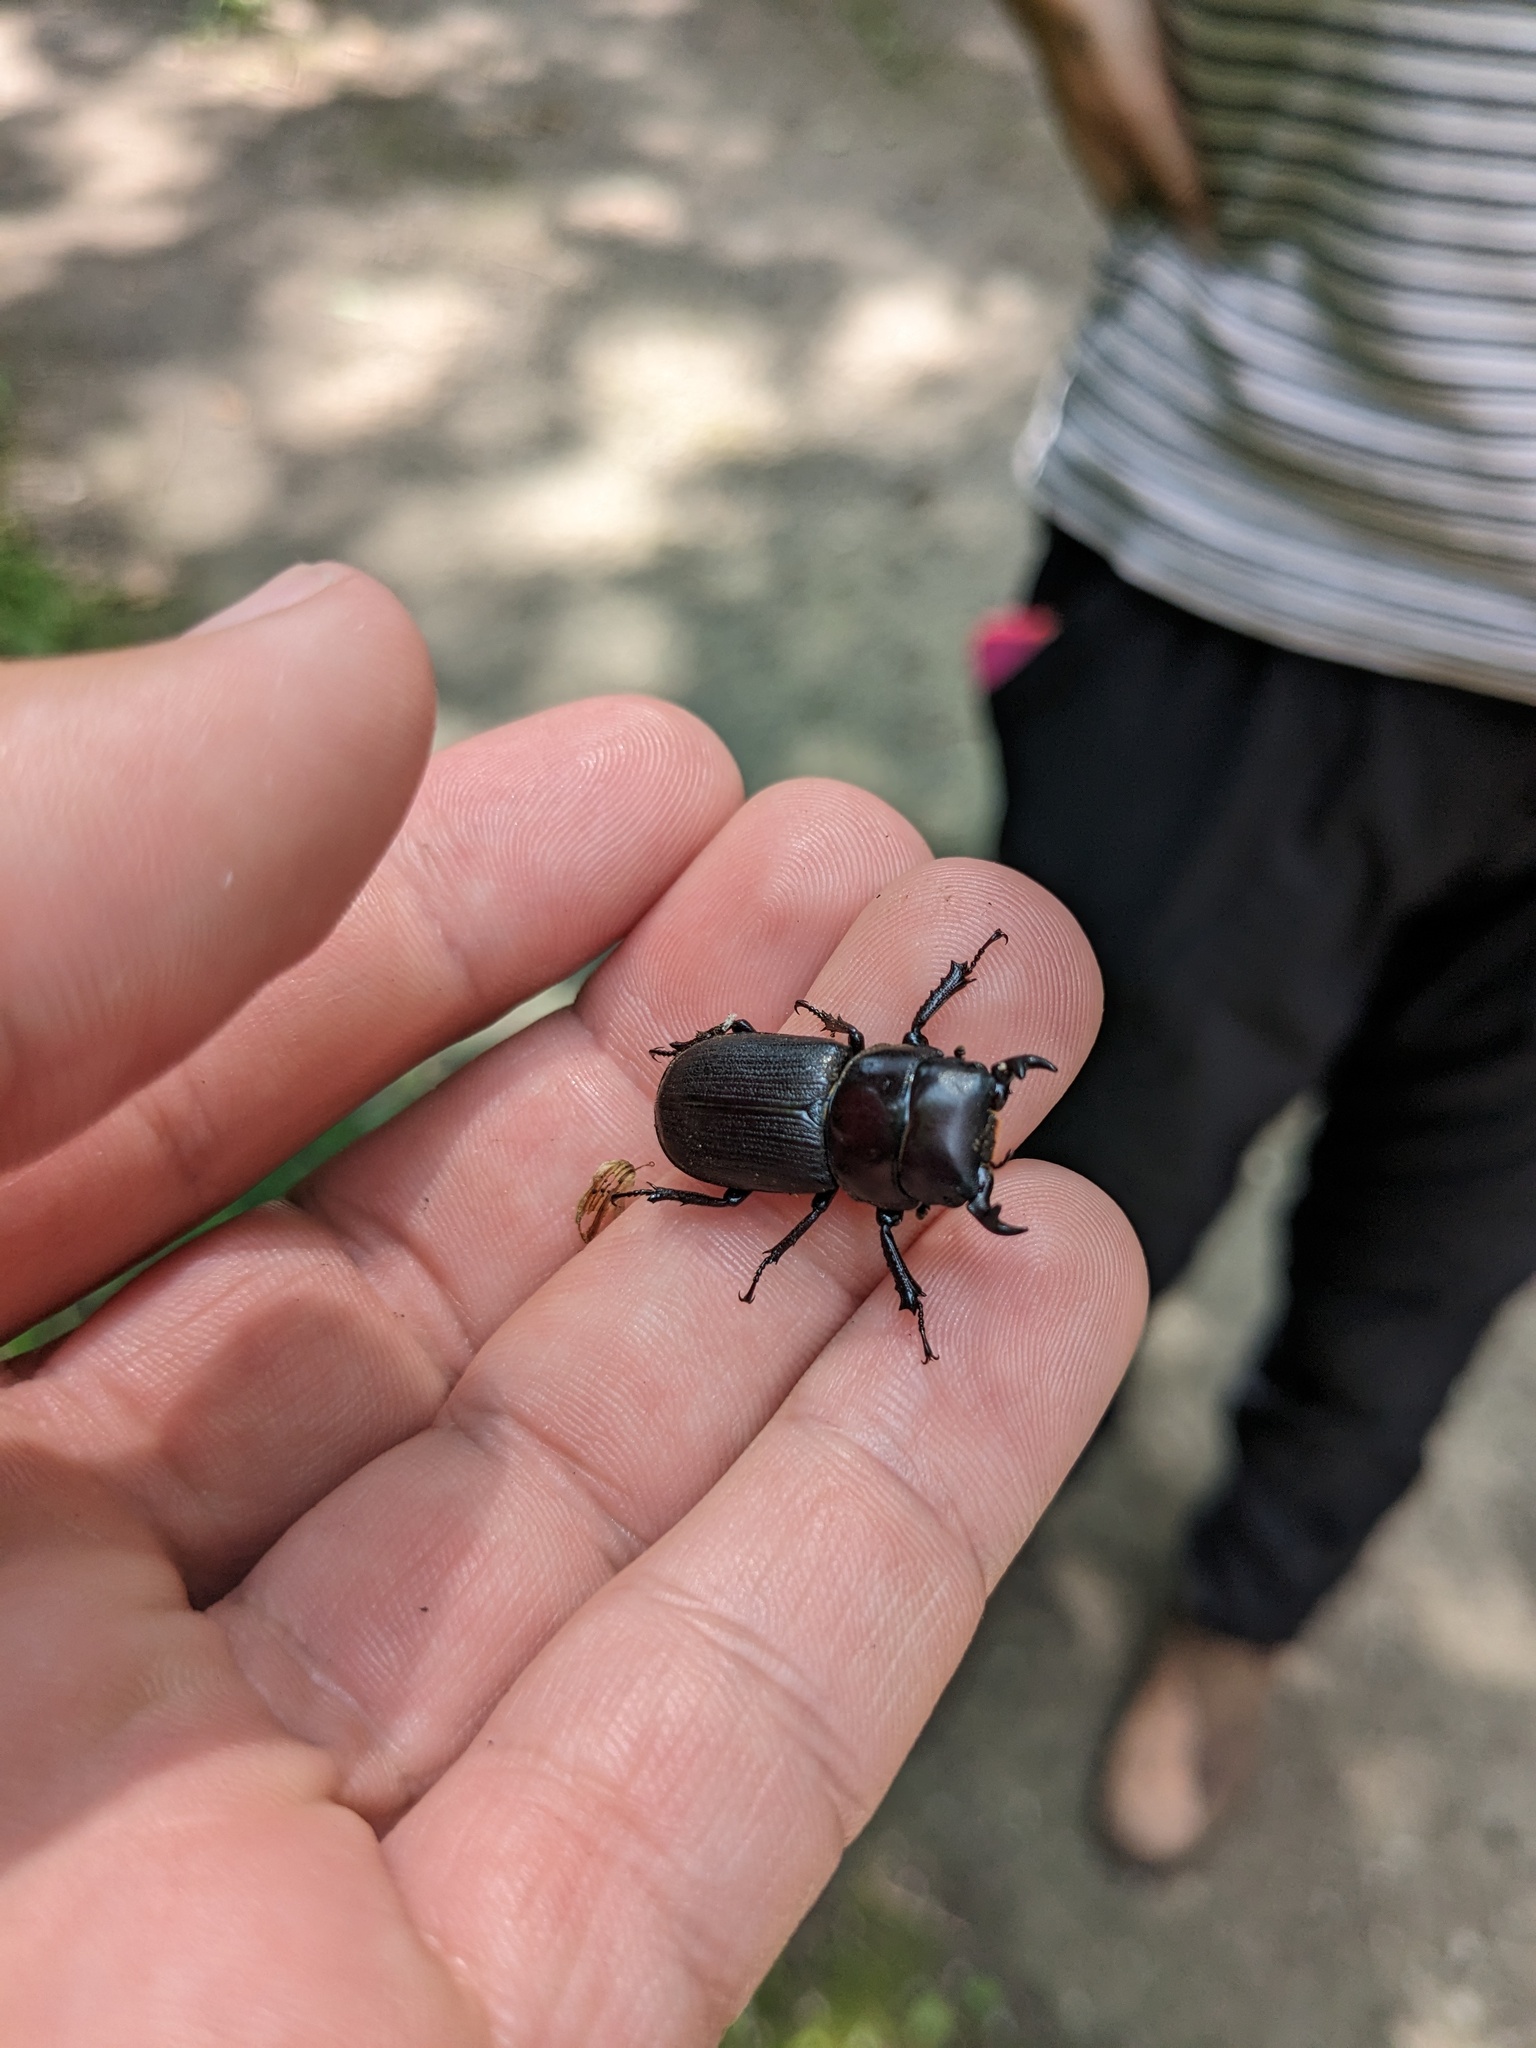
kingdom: Animalia
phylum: Arthropoda
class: Insecta
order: Coleoptera
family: Lucanidae
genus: Dorcus
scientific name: Dorcus parallelus
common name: Antelope beetle
